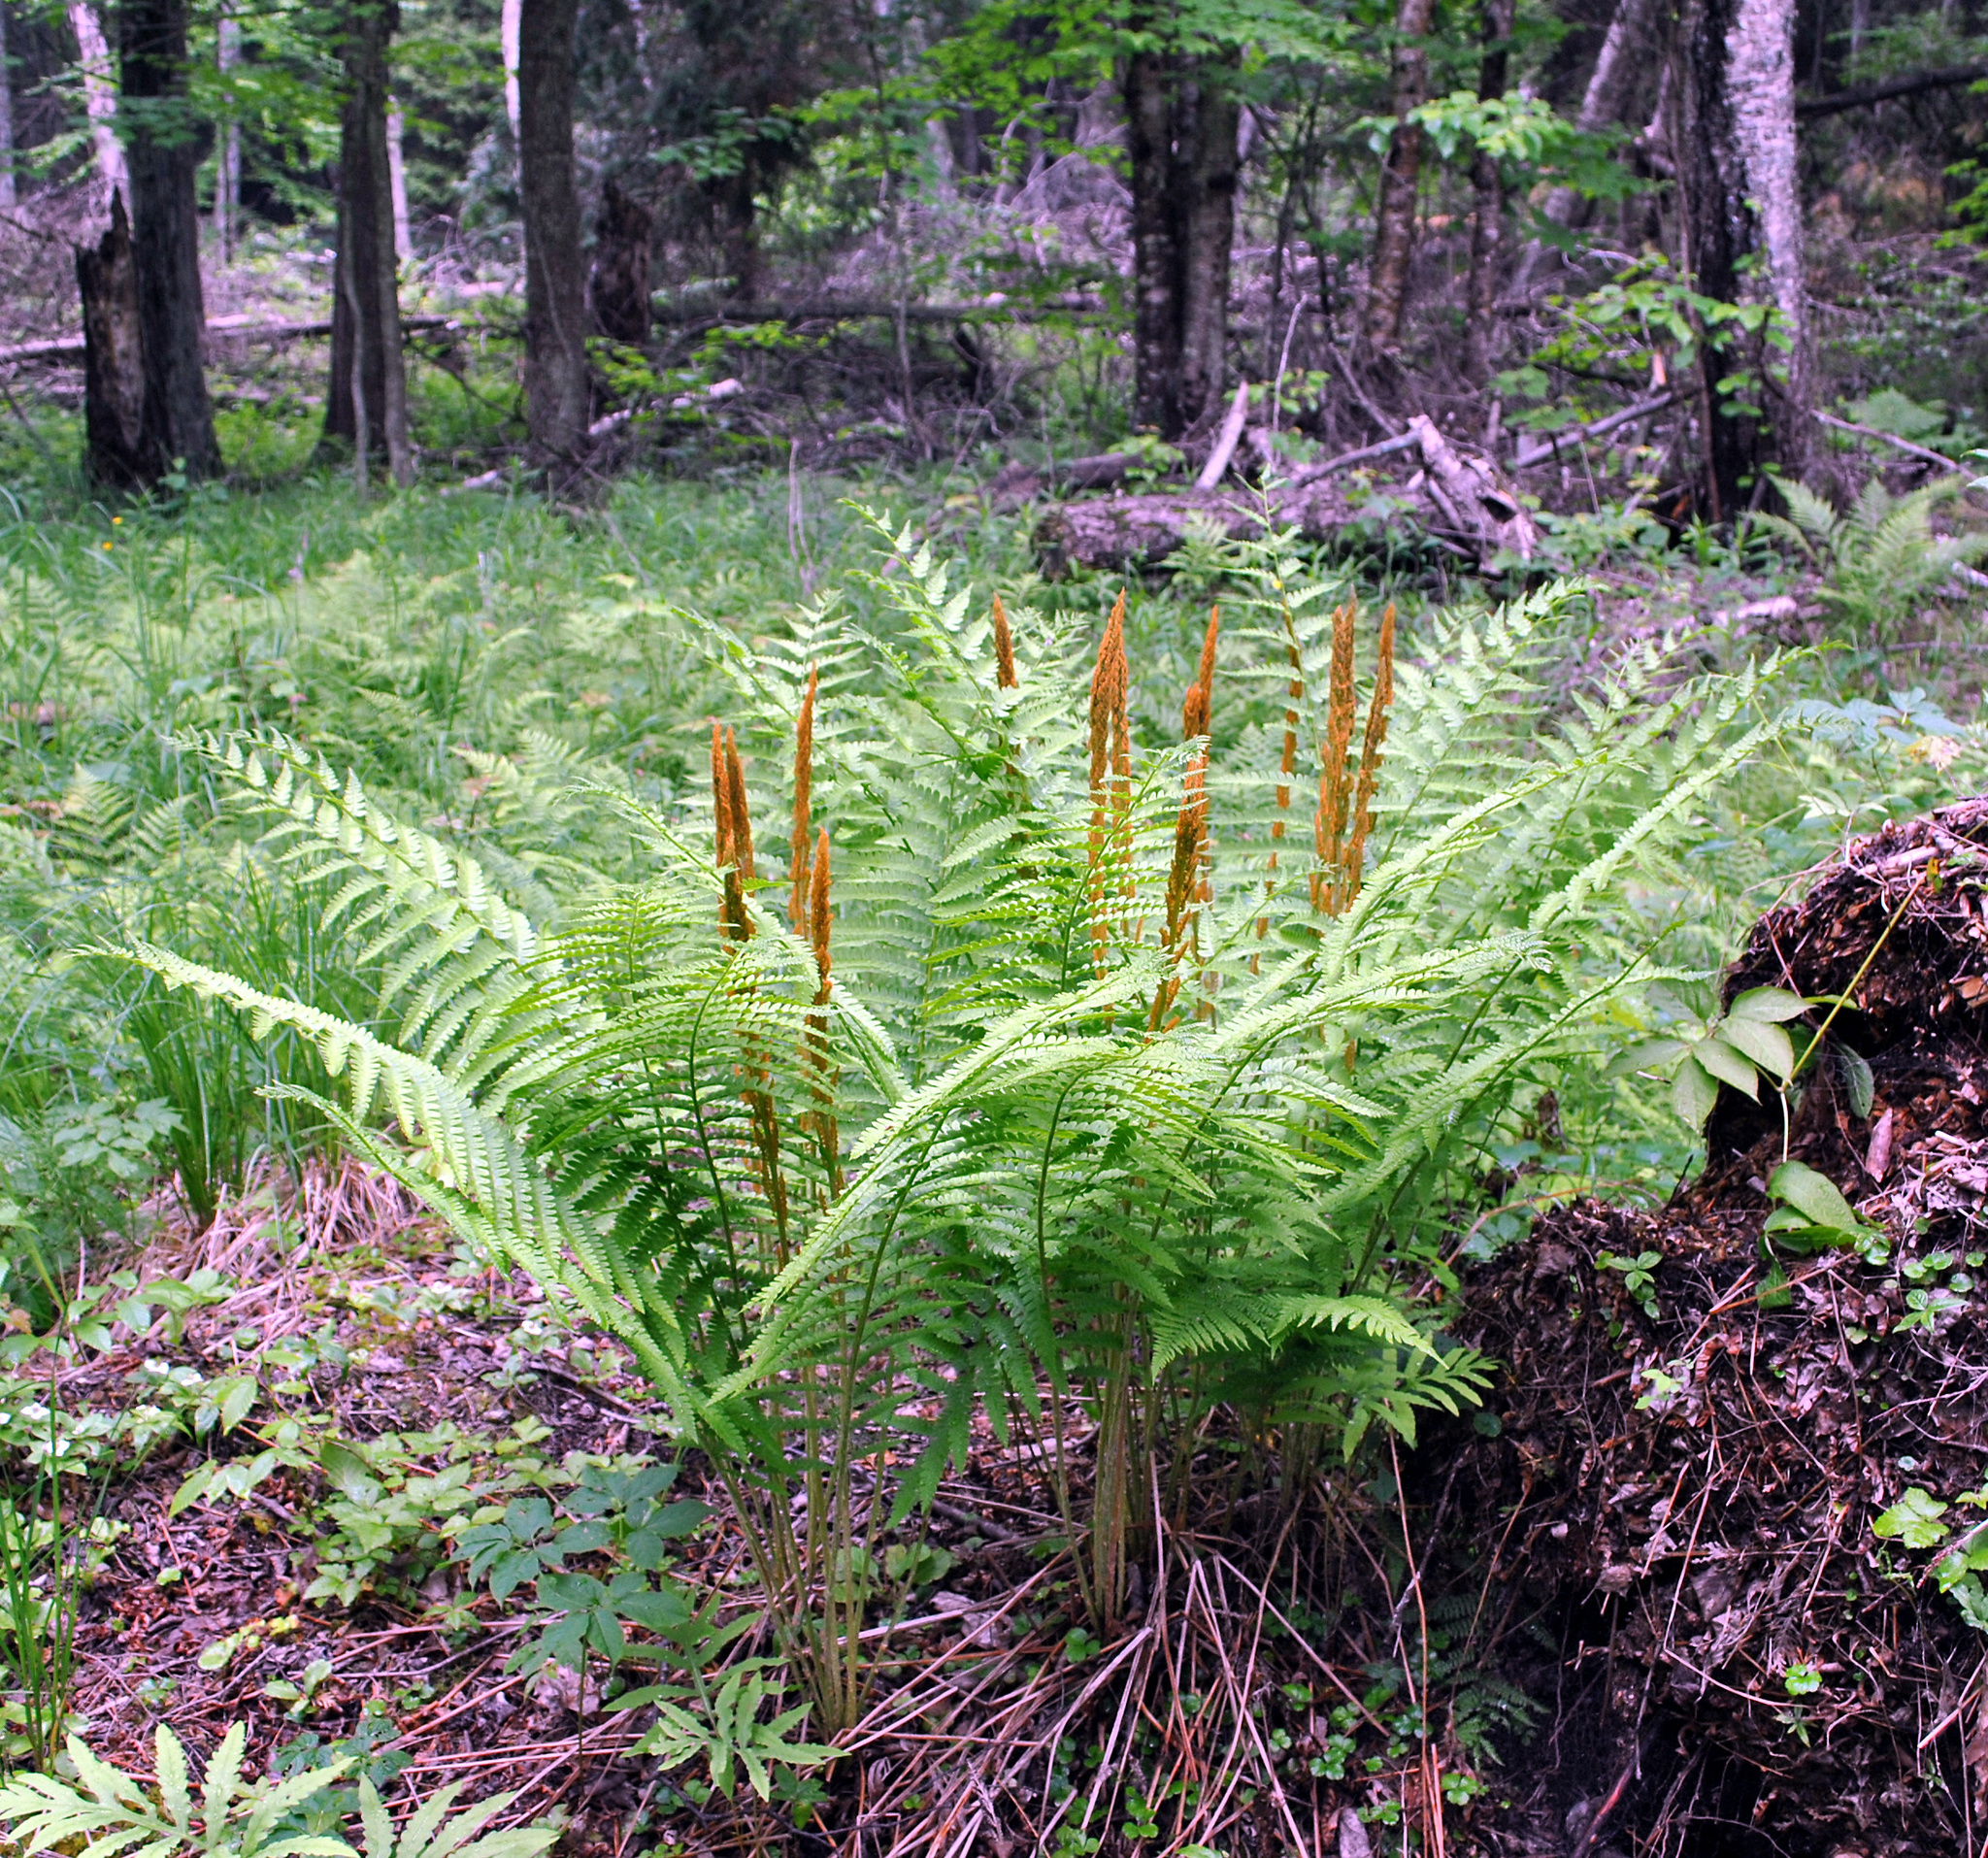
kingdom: Plantae
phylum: Tracheophyta
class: Polypodiopsida
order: Osmundales
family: Osmundaceae
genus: Osmundastrum
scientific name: Osmundastrum cinnamomeum
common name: Cinnamon fern
